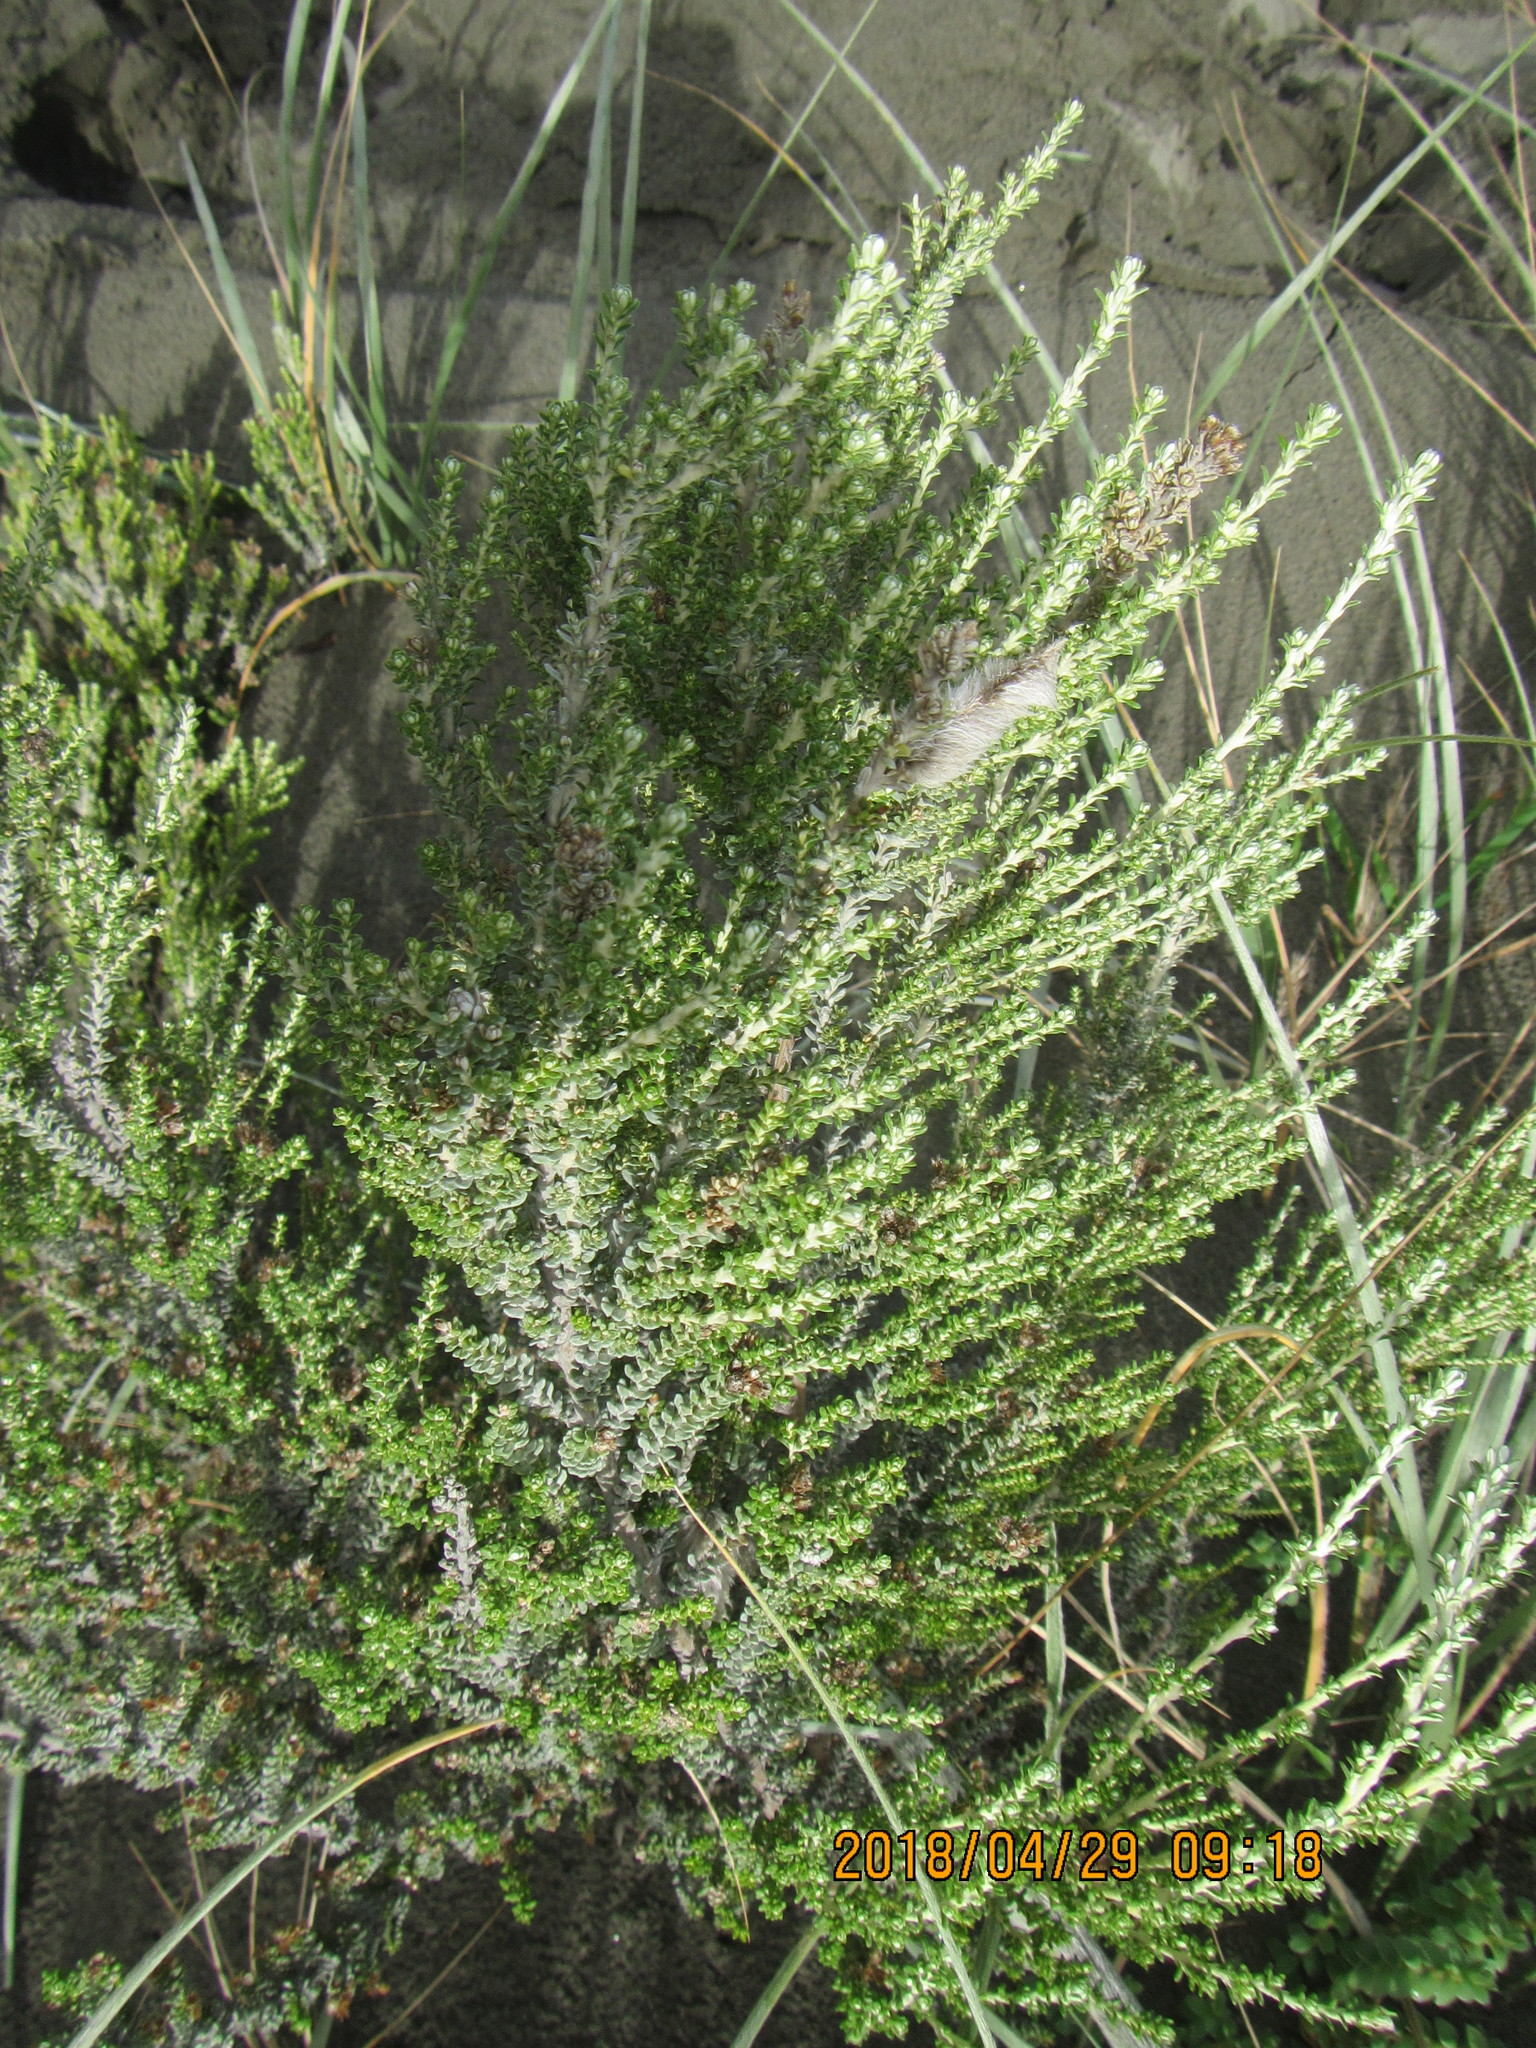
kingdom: Plantae
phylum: Tracheophyta
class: Magnoliopsida
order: Asterales
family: Asteraceae
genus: Ozothamnus
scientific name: Ozothamnus leptophyllus
